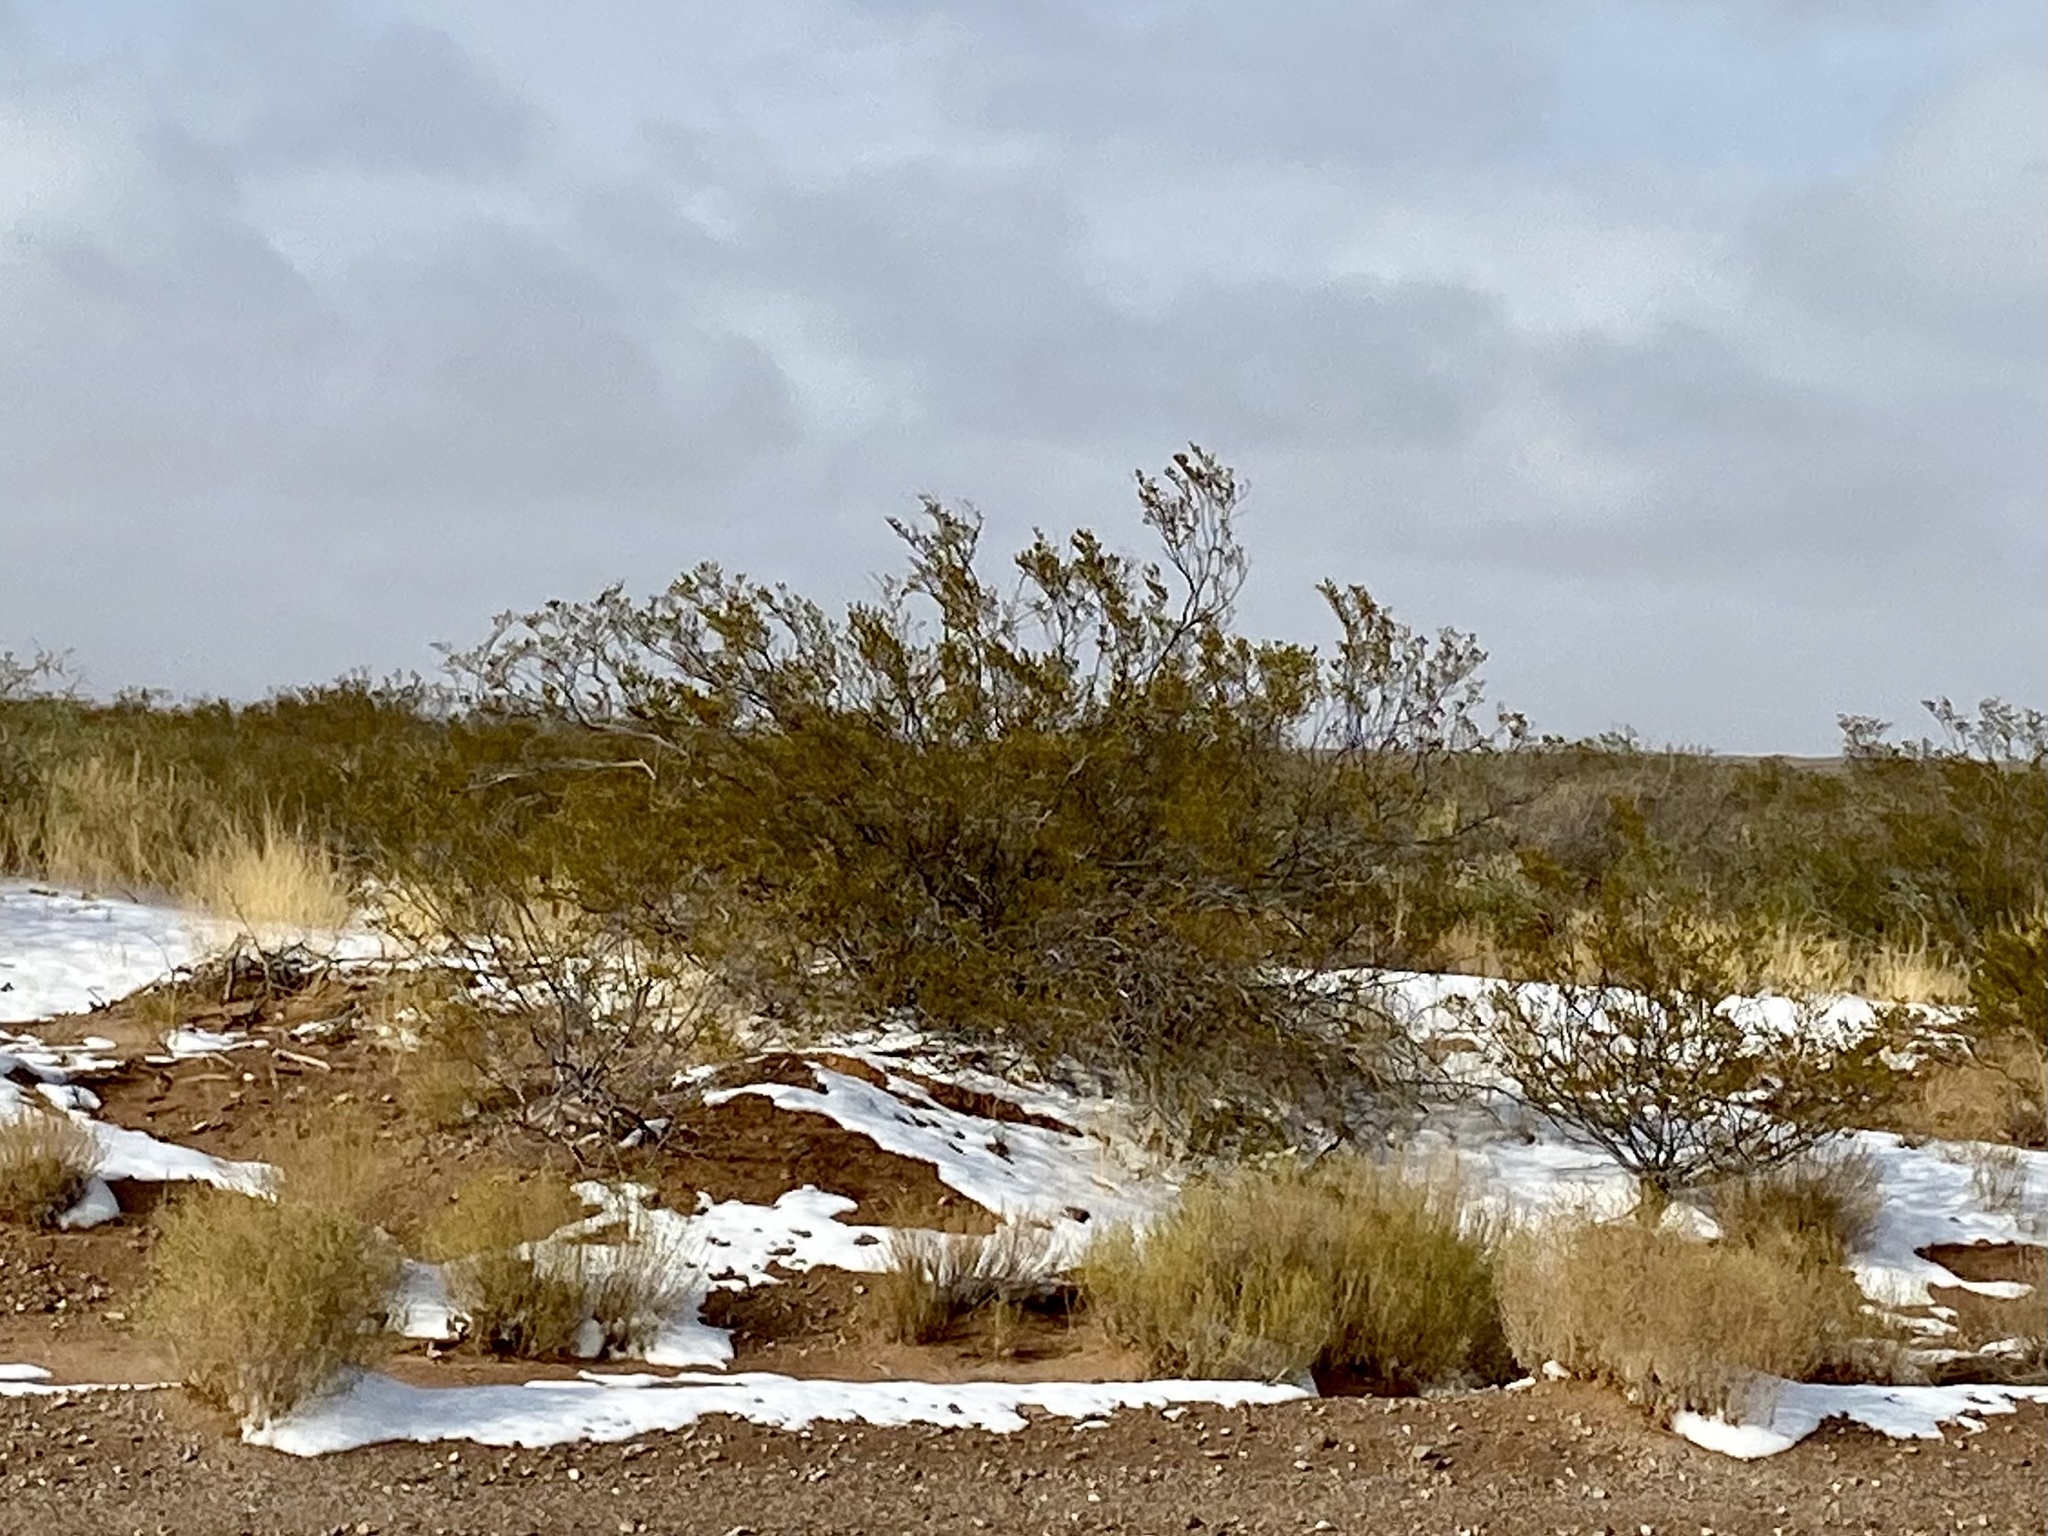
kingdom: Plantae
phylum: Tracheophyta
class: Magnoliopsida
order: Zygophyllales
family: Zygophyllaceae
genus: Larrea
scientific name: Larrea tridentata
